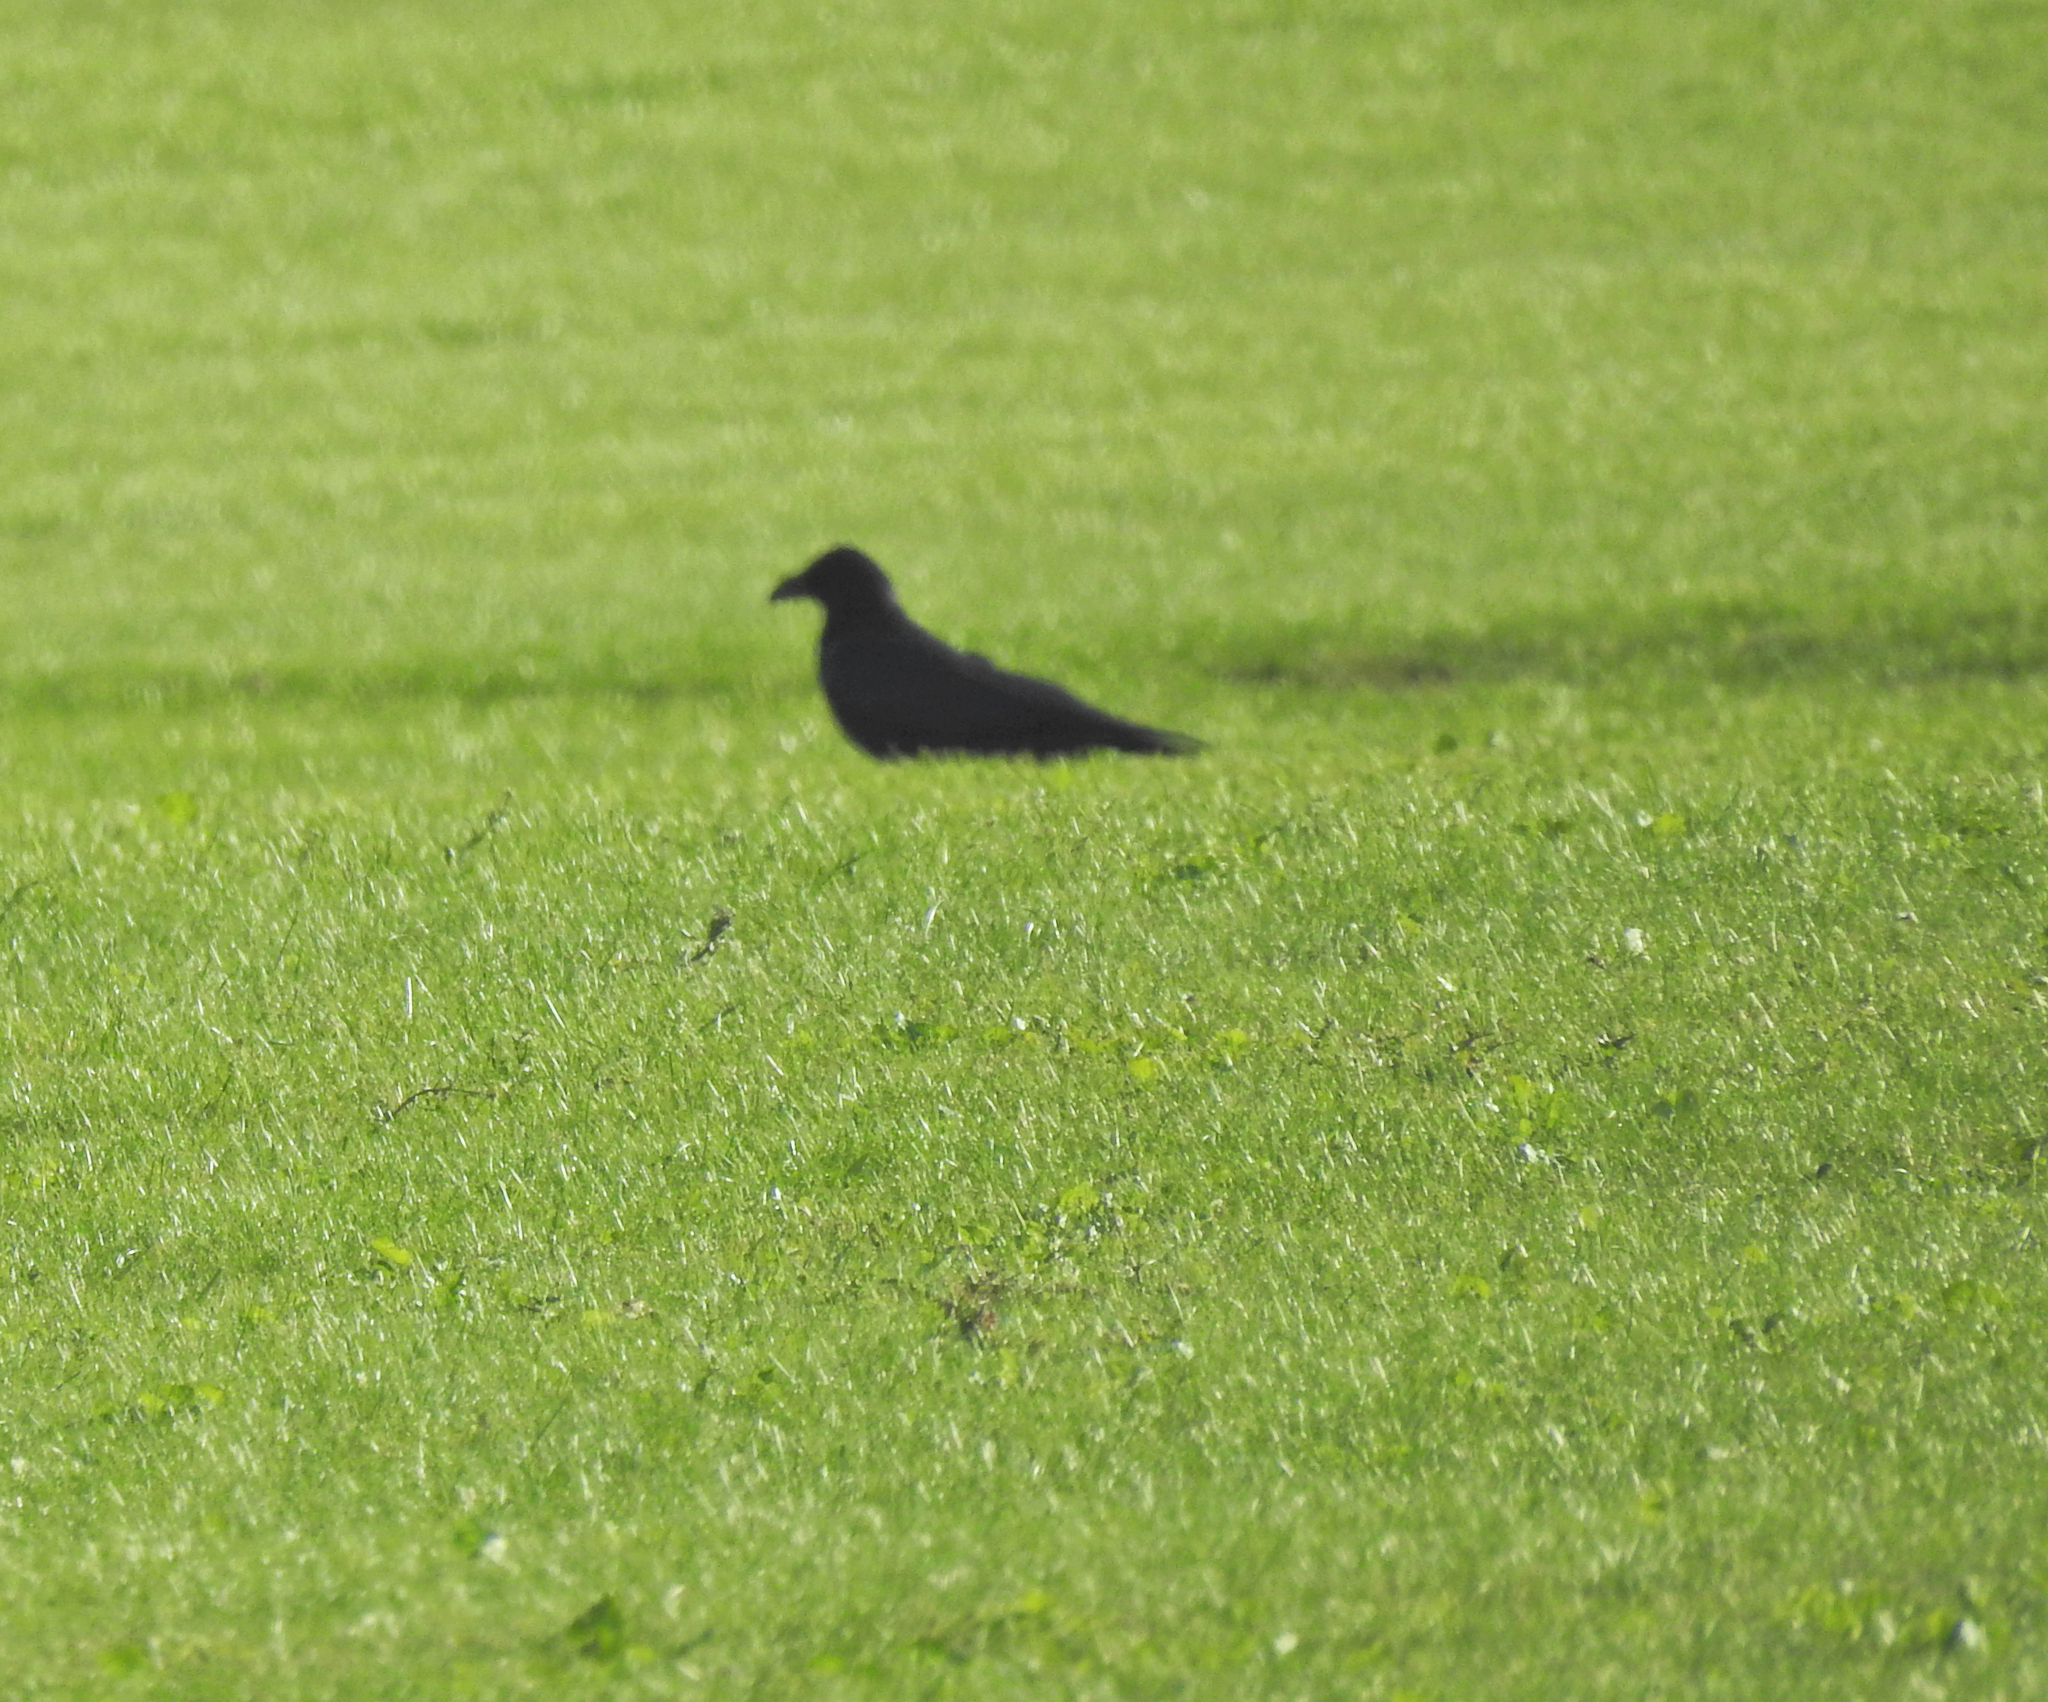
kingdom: Animalia
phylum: Chordata
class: Aves
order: Passeriformes
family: Corvidae
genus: Corvus
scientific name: Corvus corax
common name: Common raven
